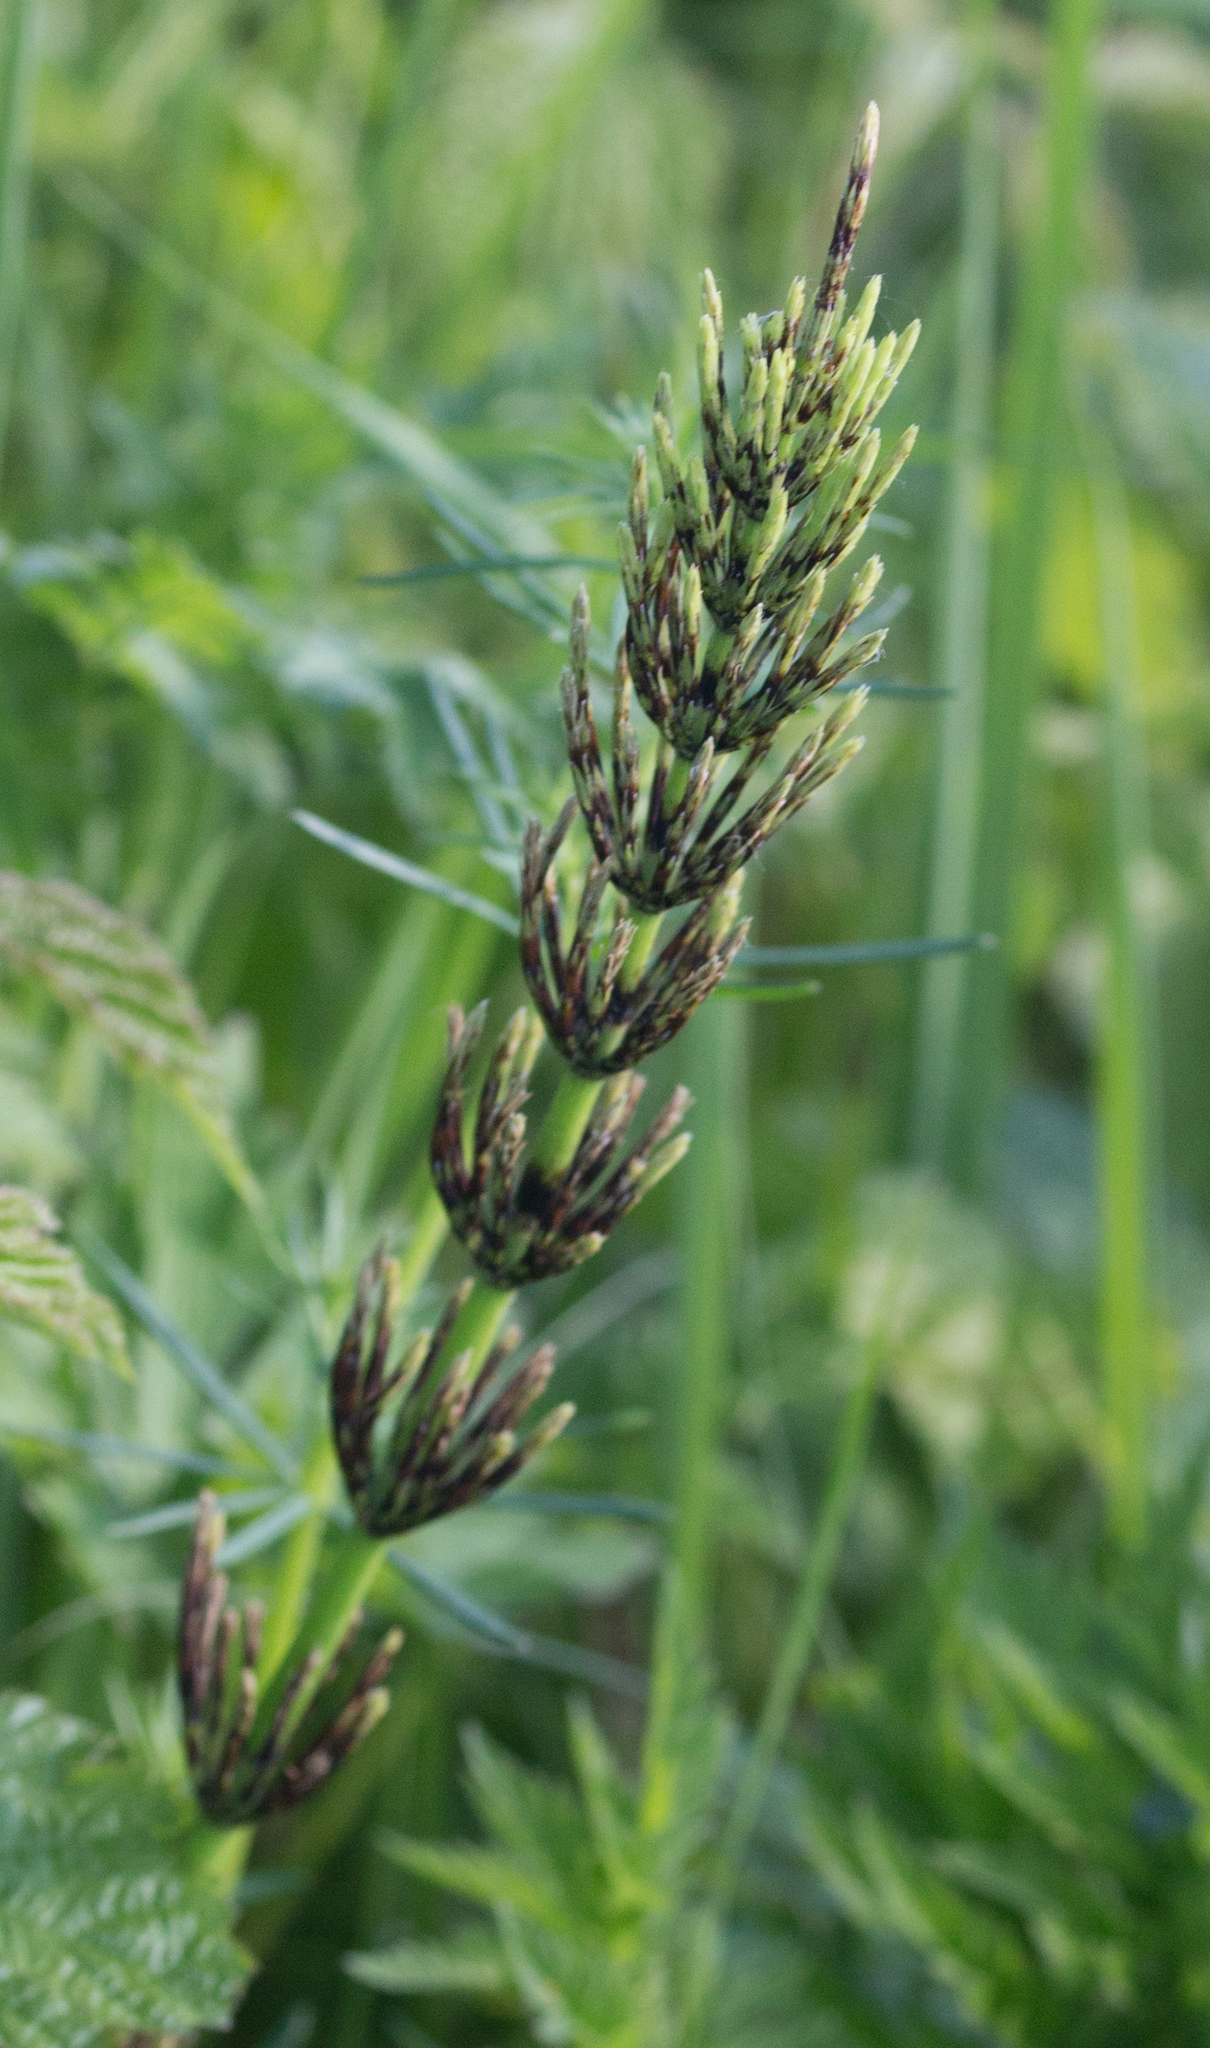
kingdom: Plantae
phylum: Tracheophyta
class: Polypodiopsida
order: Equisetales
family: Equisetaceae
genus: Equisetum
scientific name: Equisetum arvense
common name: Field horsetail
